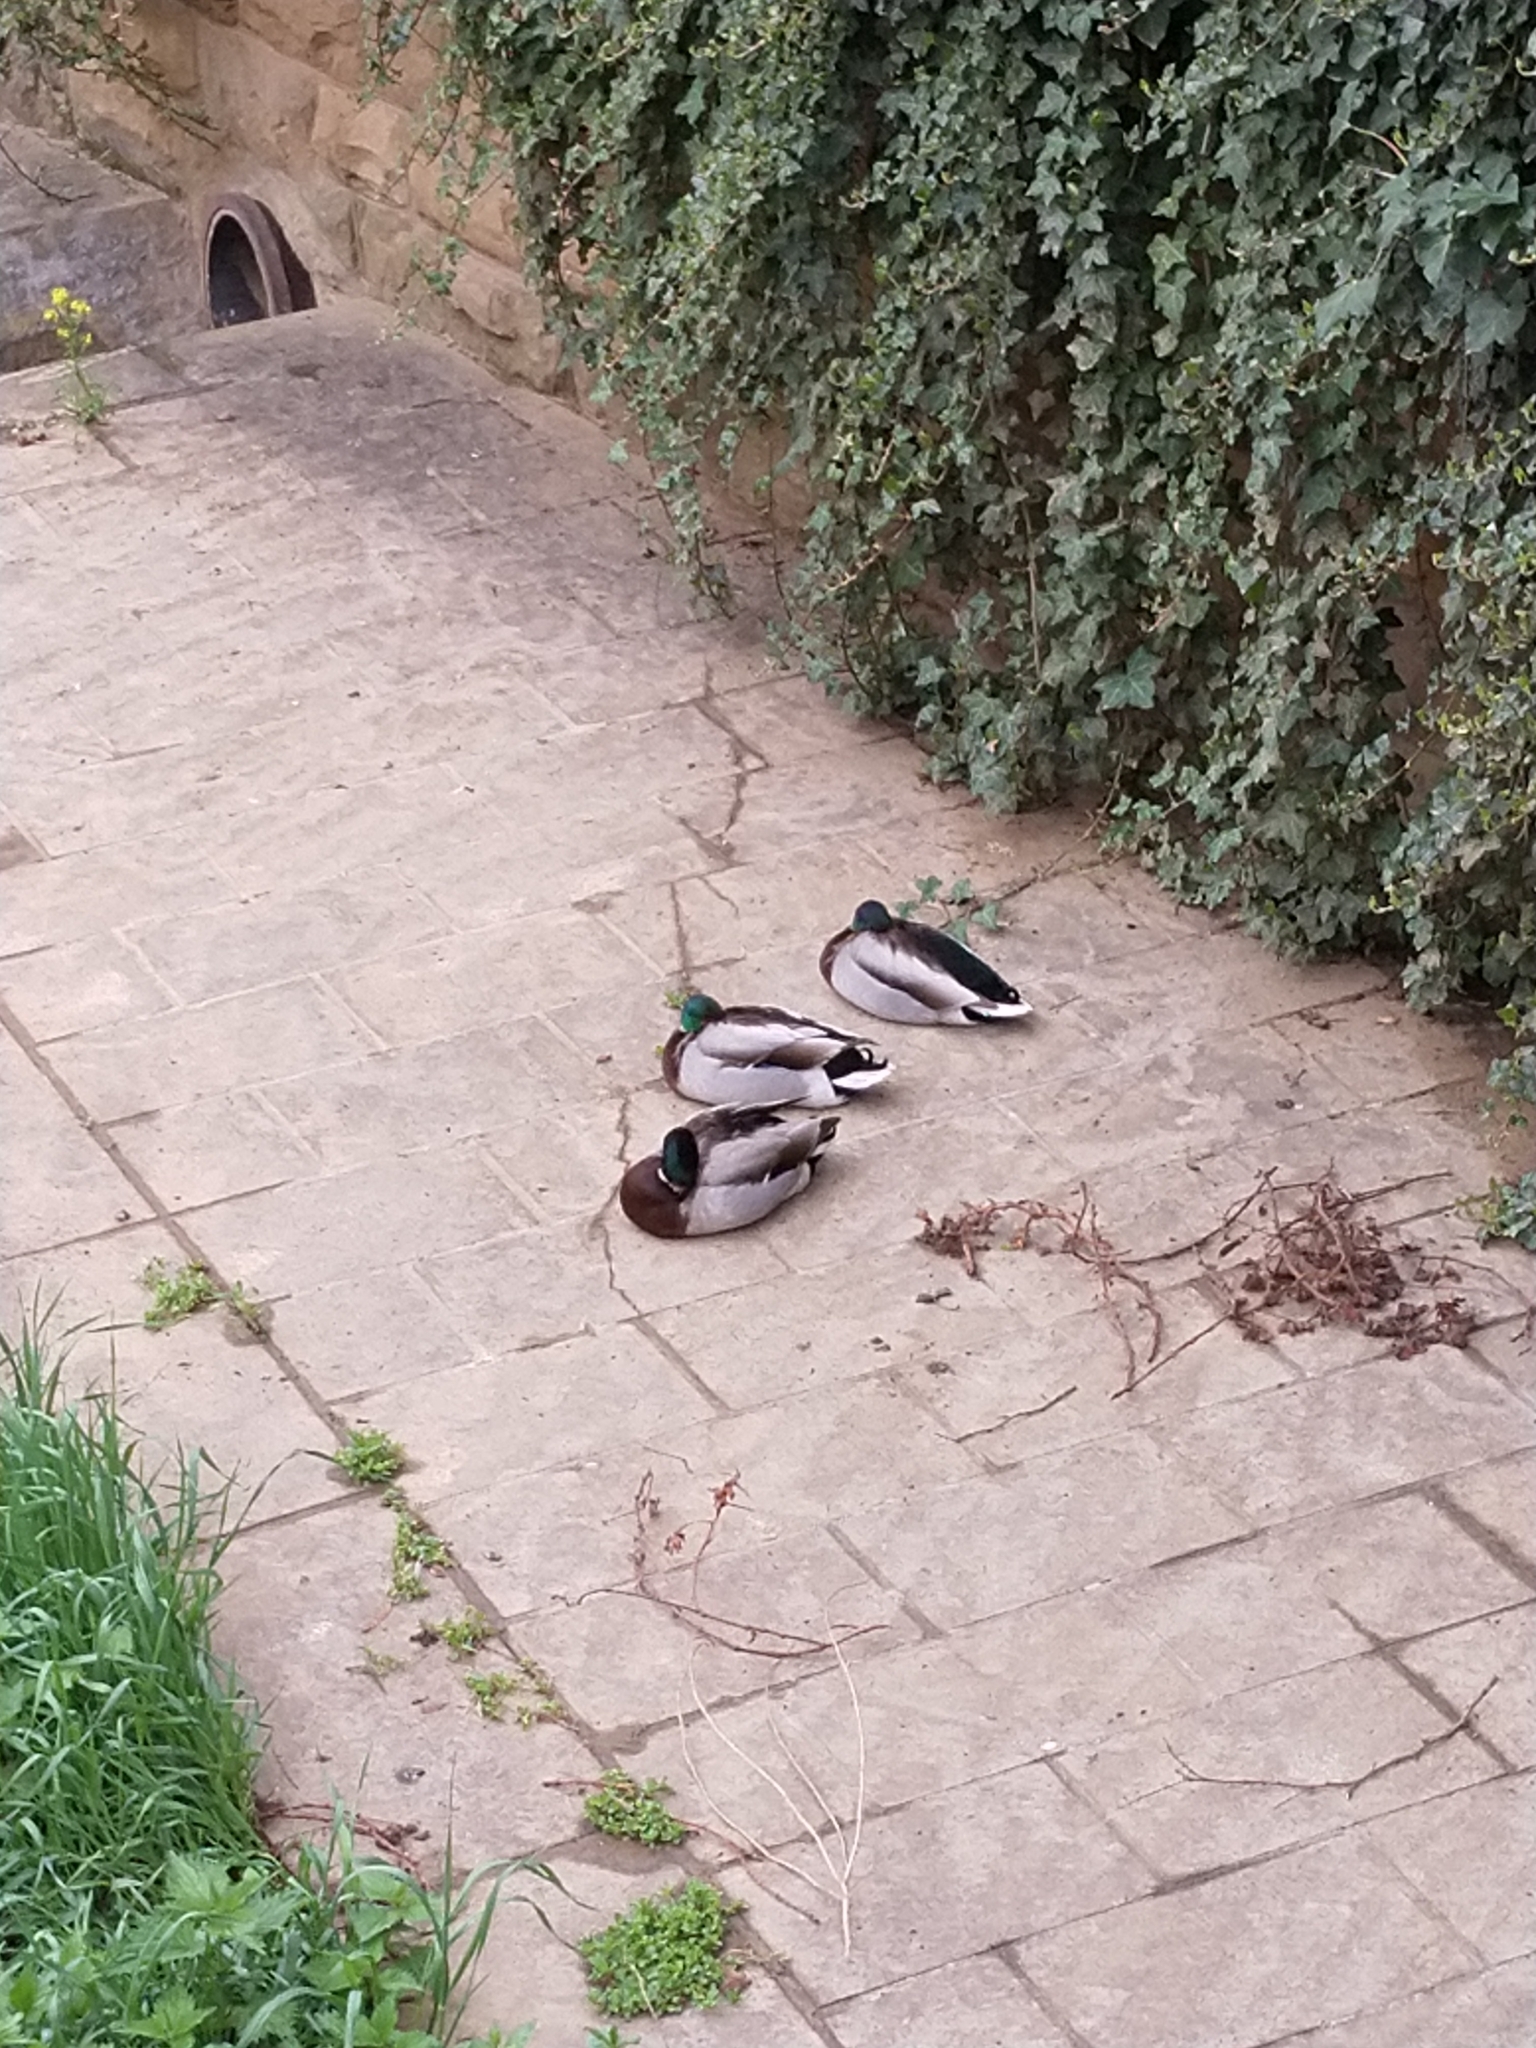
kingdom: Animalia
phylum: Chordata
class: Aves
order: Anseriformes
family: Anatidae
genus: Anas
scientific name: Anas platyrhynchos
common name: Mallard
